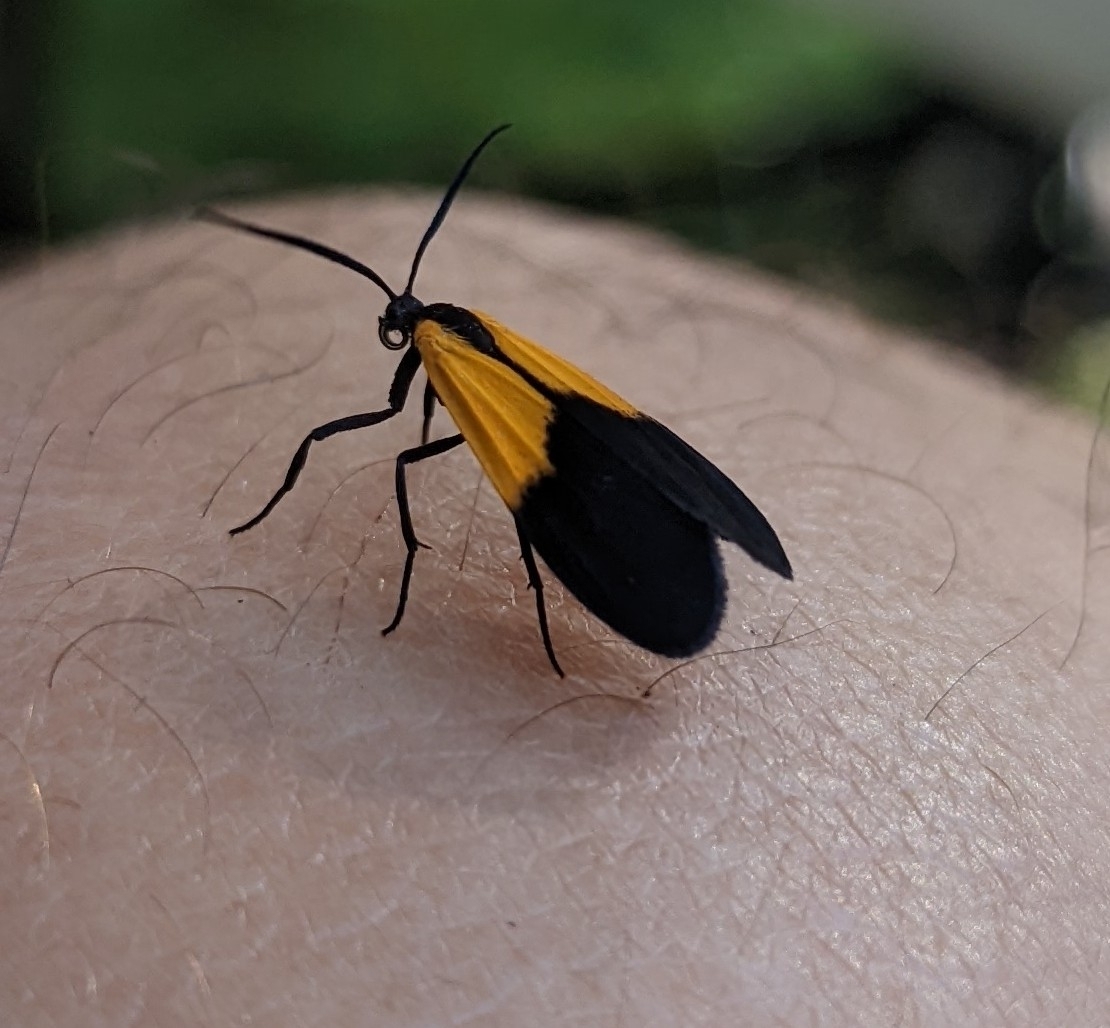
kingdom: Animalia
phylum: Arthropoda
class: Insecta
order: Lepidoptera
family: Erebidae
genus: Lycomorpha
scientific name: Lycomorpha pholus
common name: Black-and-yellow lichen moth
